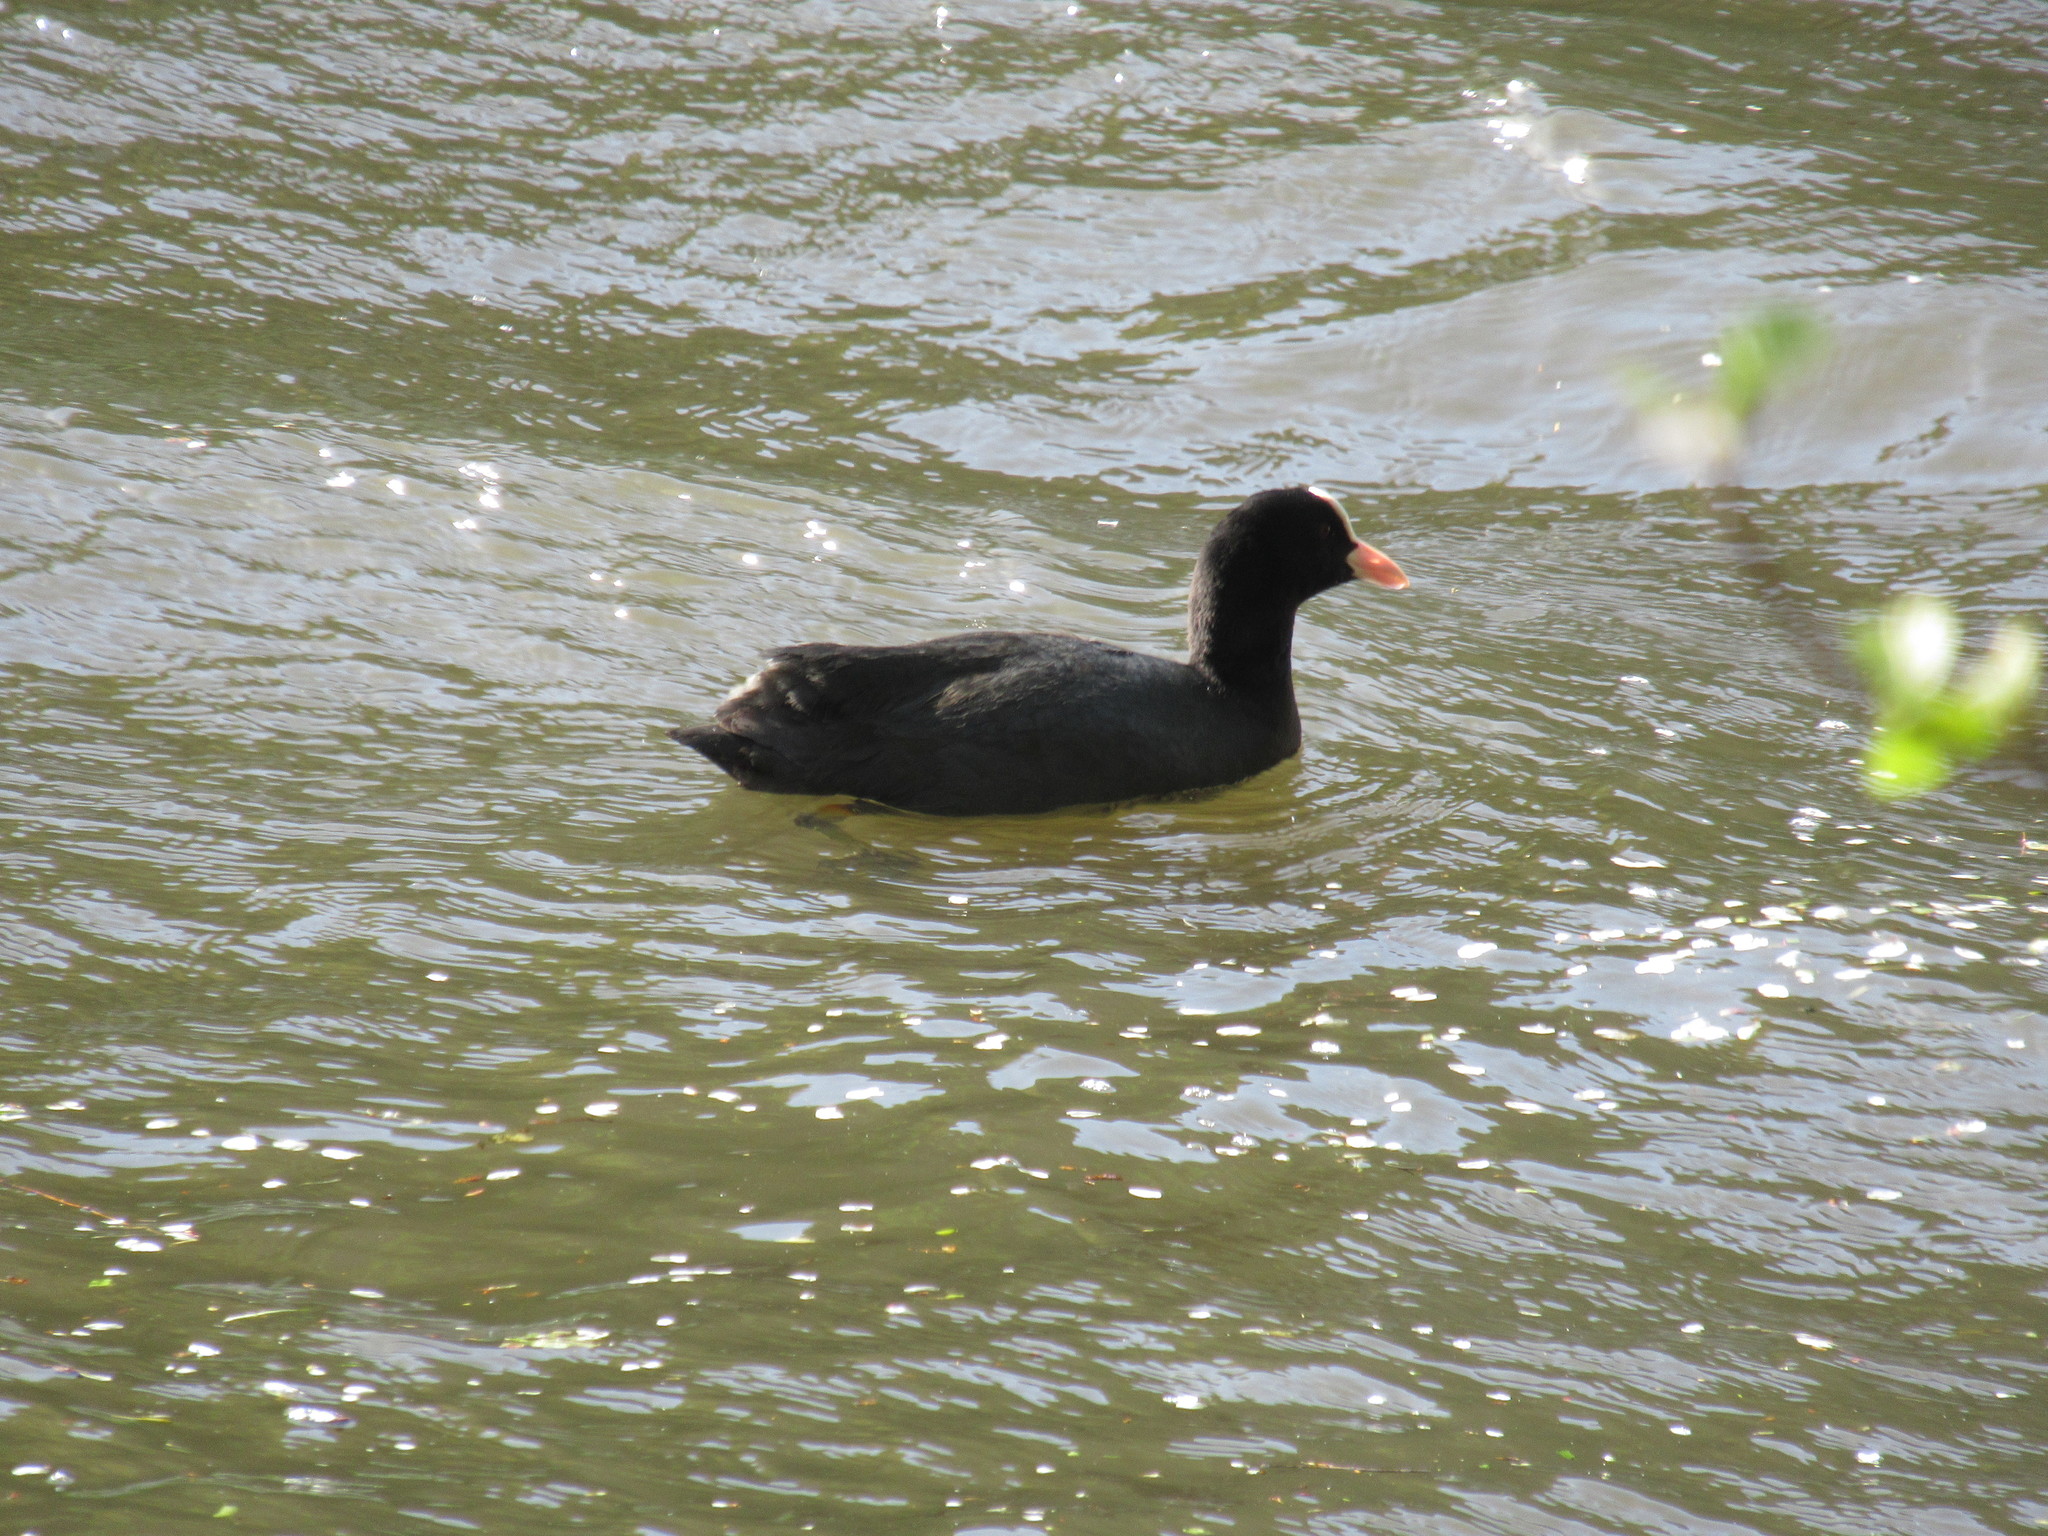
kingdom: Animalia
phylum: Chordata
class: Aves
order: Gruiformes
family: Rallidae
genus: Fulica
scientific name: Fulica atra
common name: Eurasian coot
